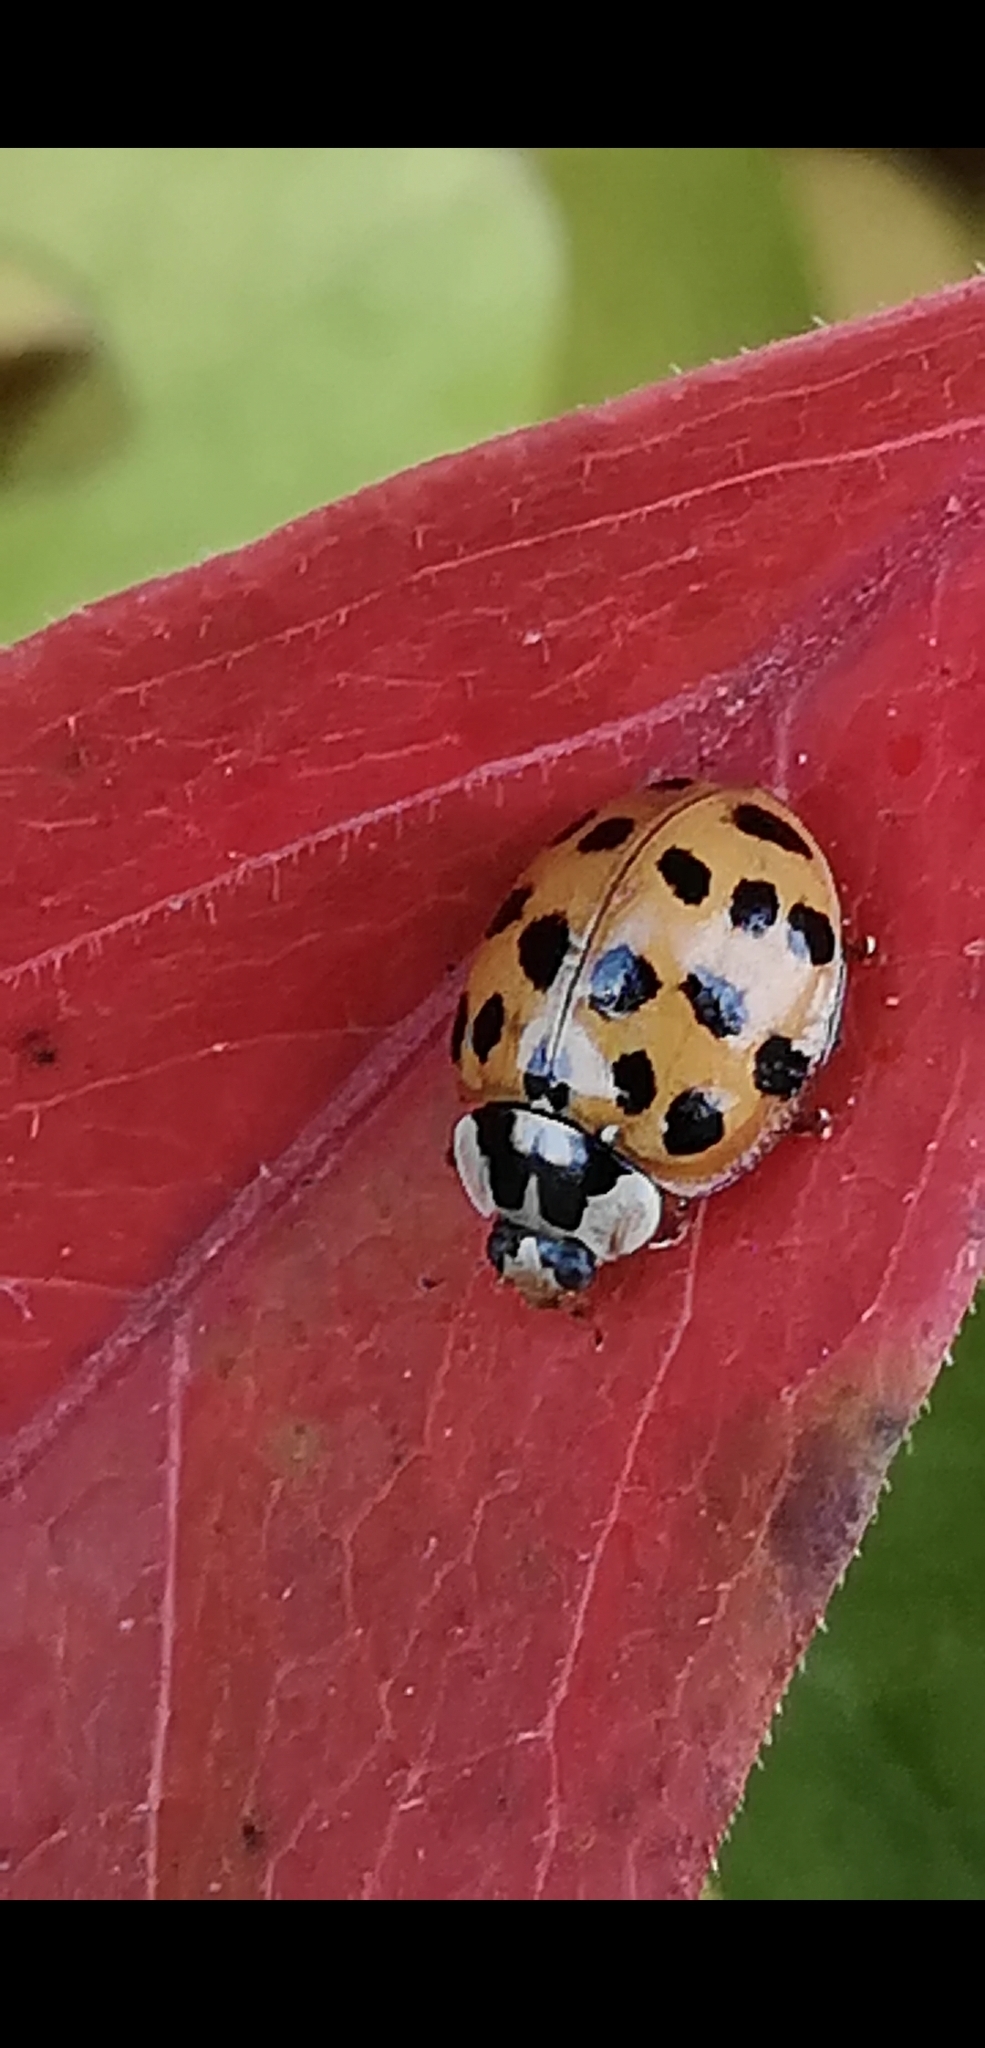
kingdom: Animalia
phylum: Arthropoda
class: Insecta
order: Coleoptera
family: Coccinellidae
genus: Harmonia
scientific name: Harmonia axyridis
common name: Harlequin ladybird
